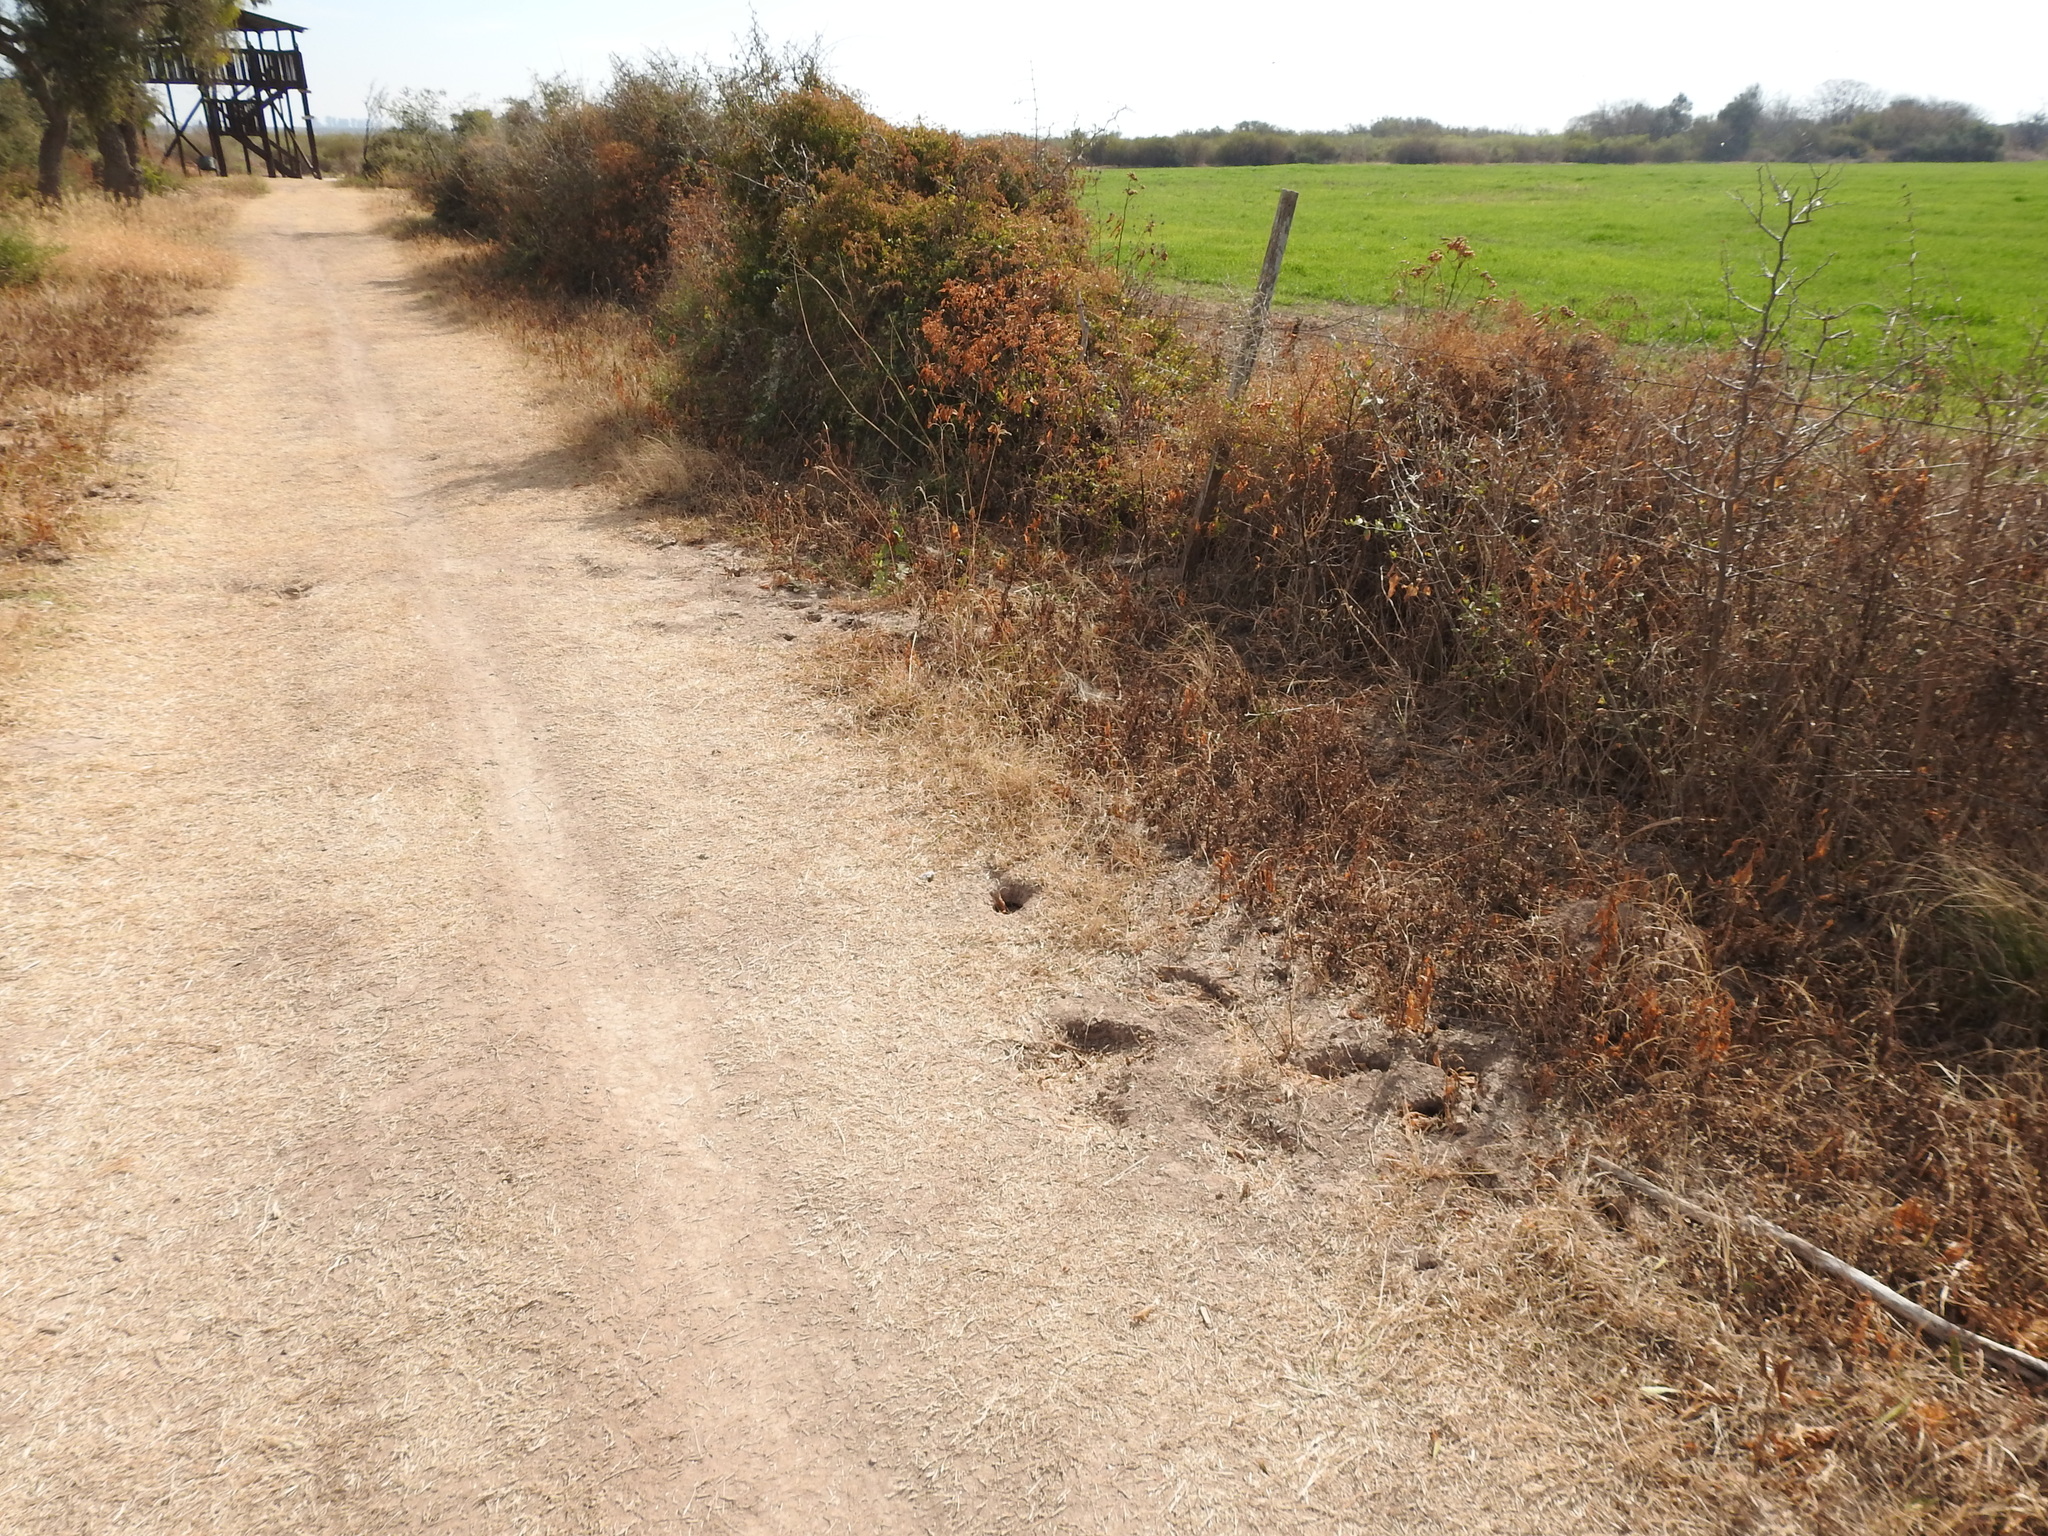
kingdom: Animalia
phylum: Chordata
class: Mammalia
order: Rodentia
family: Ctenomyidae
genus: Ctenomys
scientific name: Ctenomys rosendopascuali
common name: Rosendo pascual’s tuco-tuco
